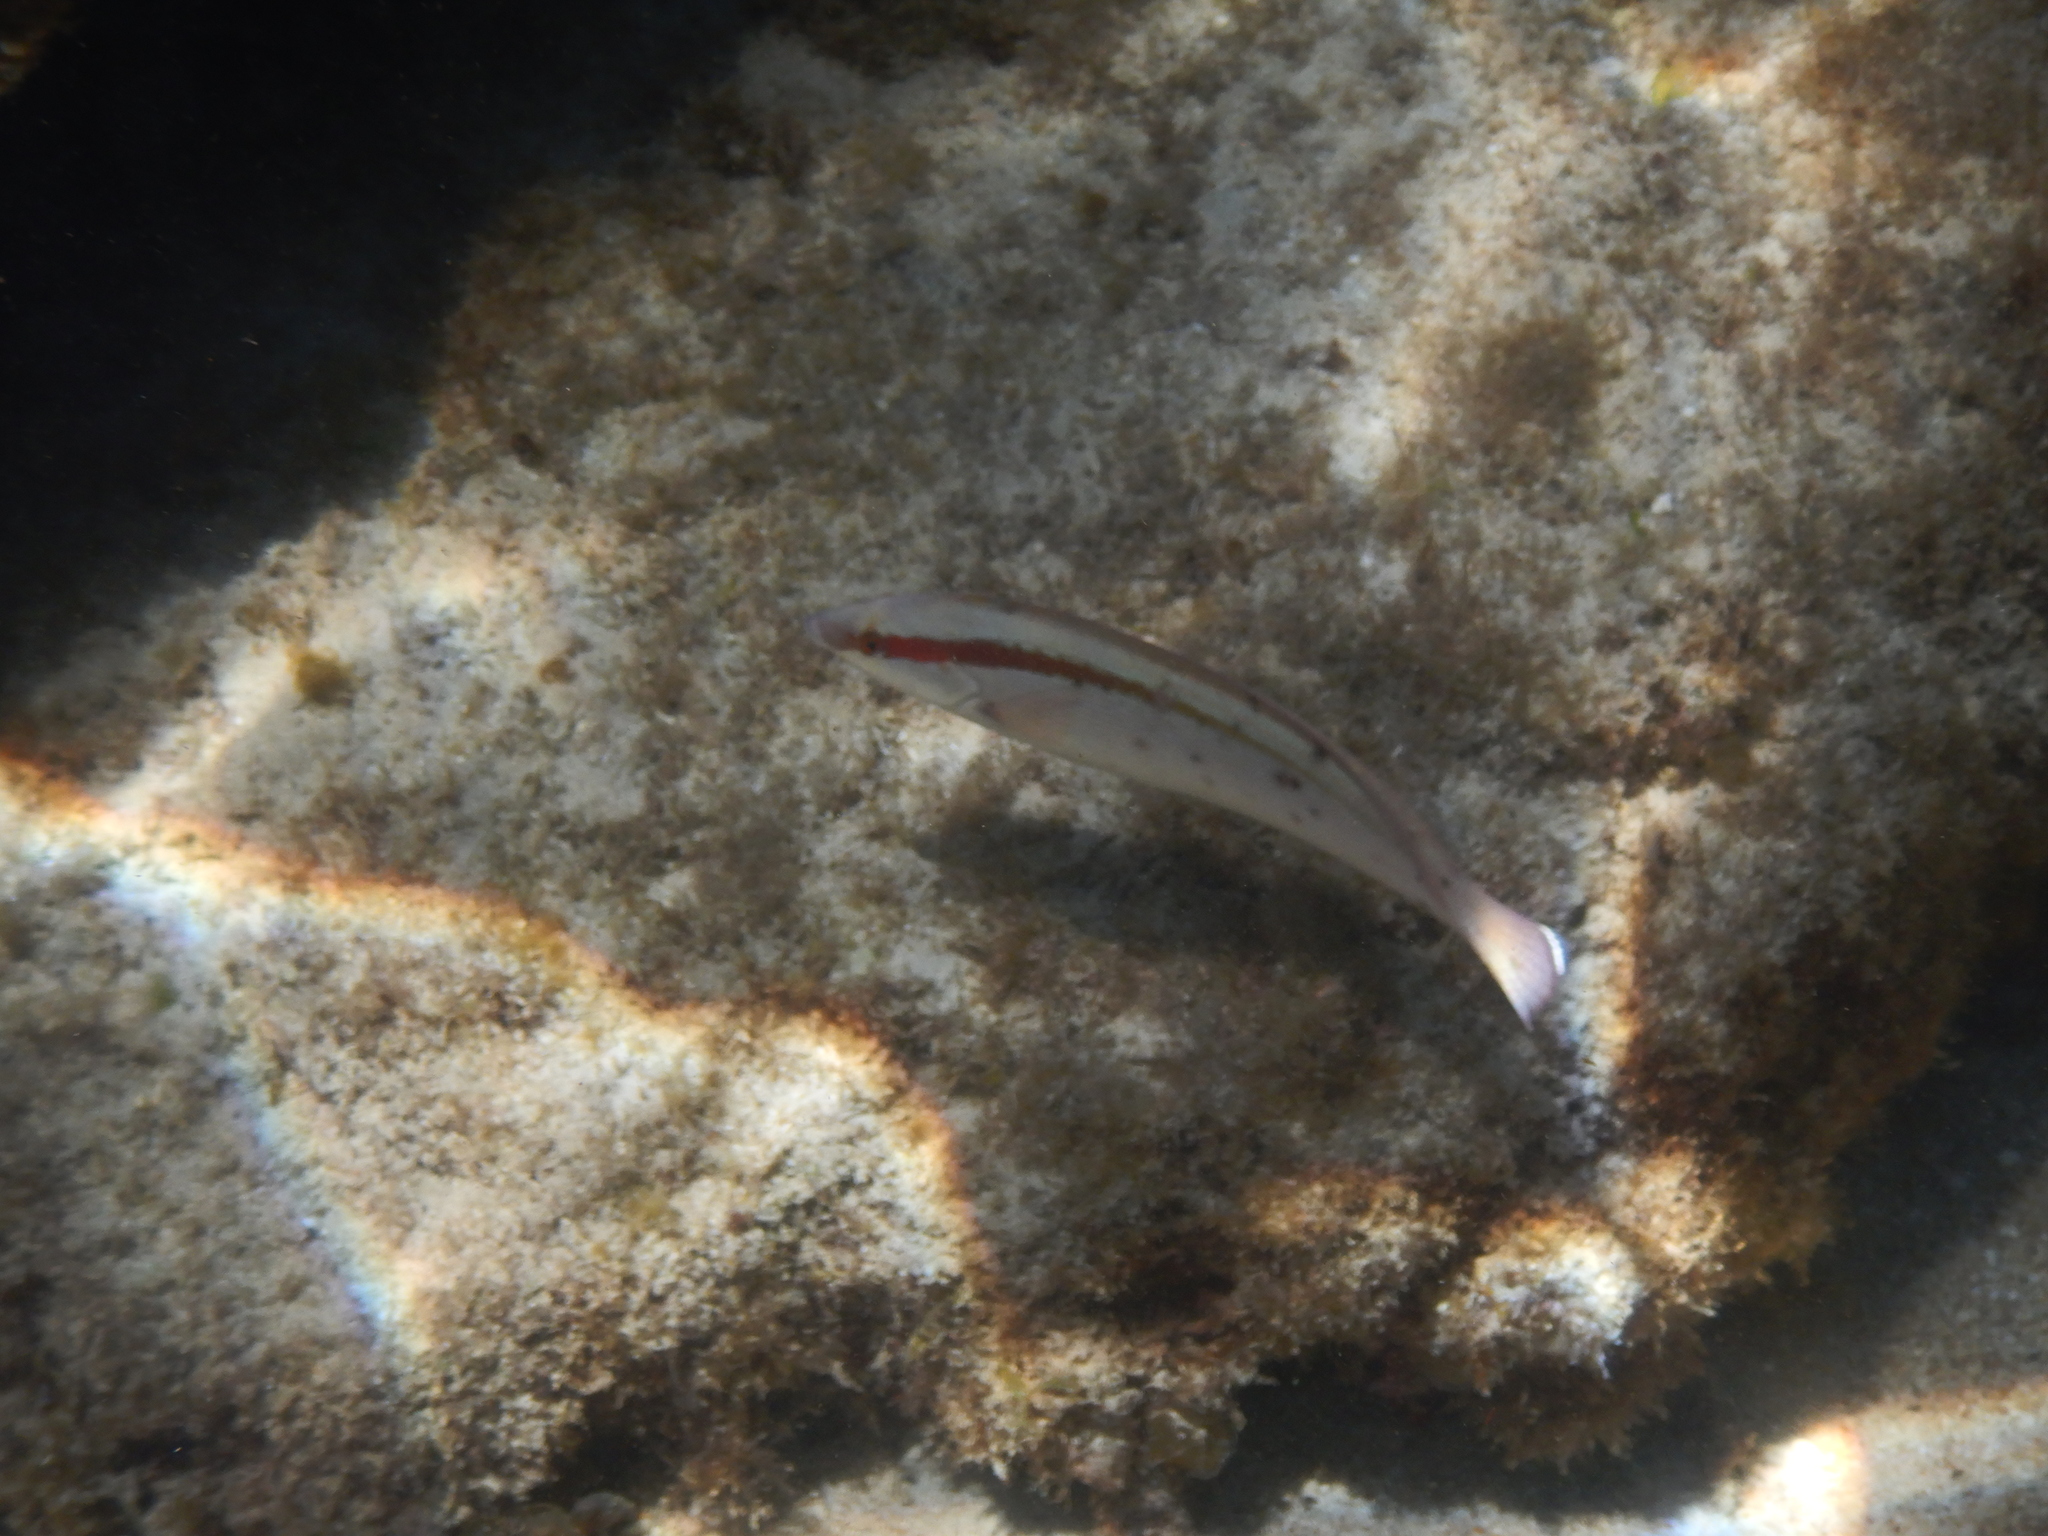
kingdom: Animalia
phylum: Chordata
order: Perciformes
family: Labridae
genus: Coris
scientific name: Coris auricularis
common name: Western king wrasse
